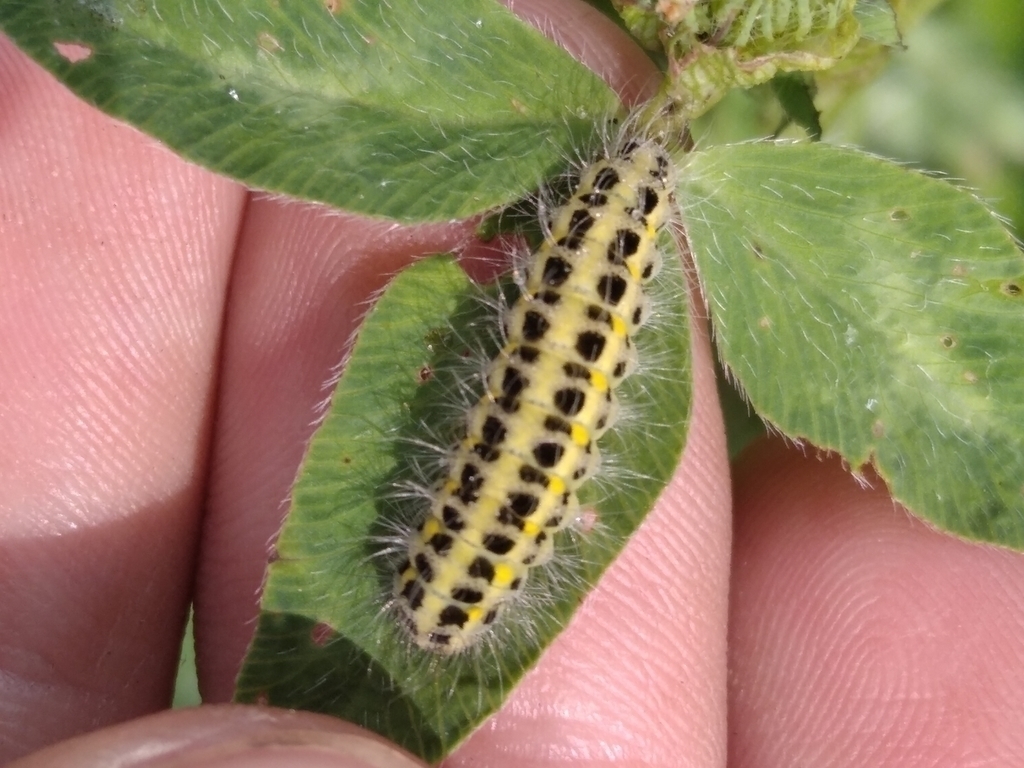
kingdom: Animalia
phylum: Arthropoda
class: Insecta
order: Lepidoptera
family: Zygaenidae
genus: Zygaena
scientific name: Zygaena lonicerae
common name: Narrow-bordered five-spot burnet
